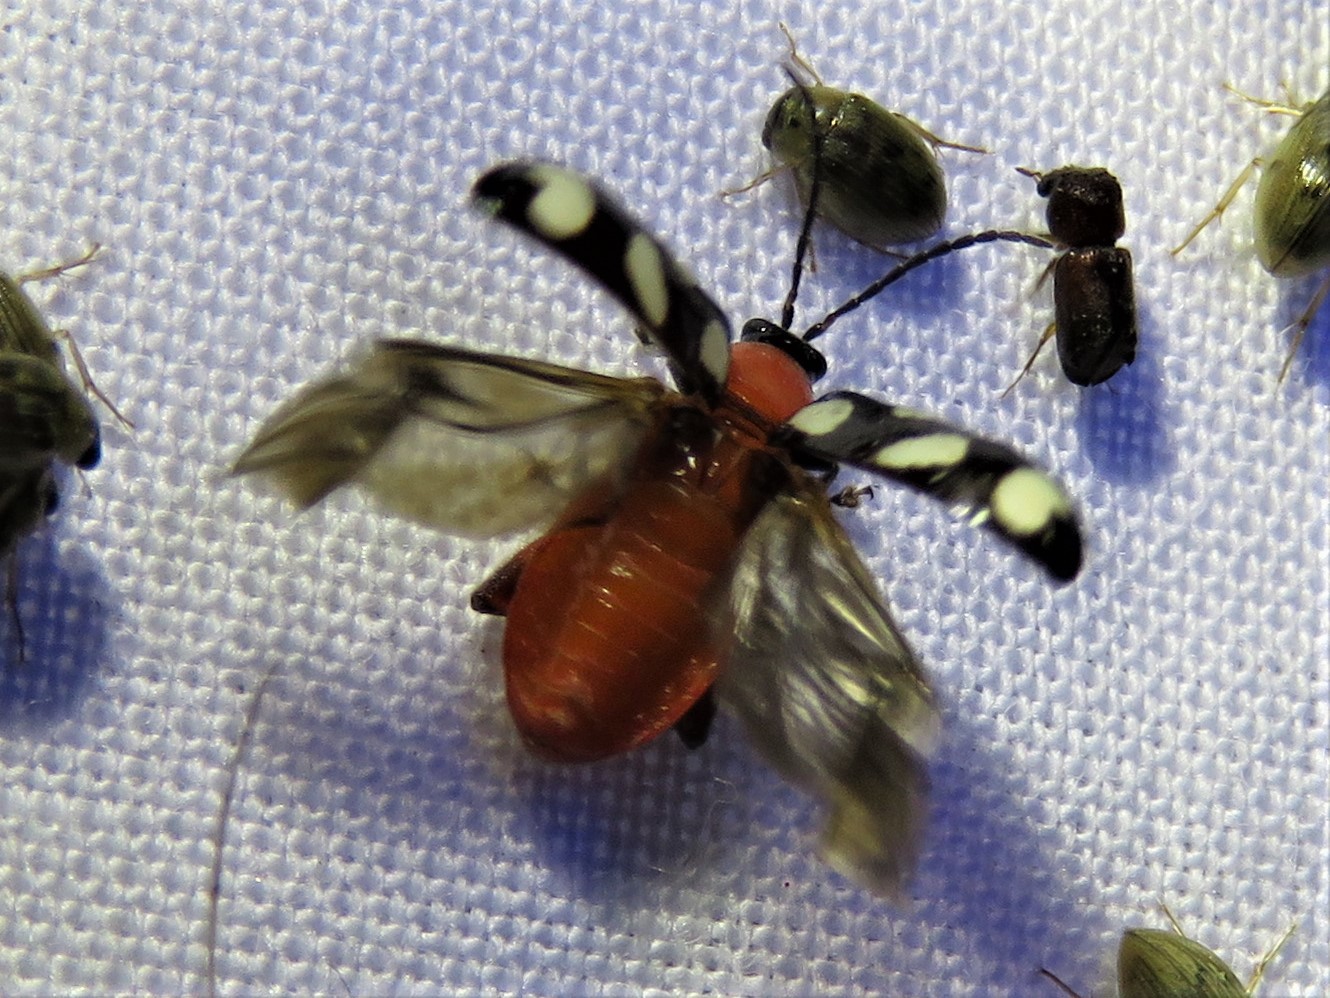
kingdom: Animalia
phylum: Arthropoda
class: Insecta
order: Coleoptera
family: Chrysomelidae
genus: Omophoita
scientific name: Omophoita cyanipennis
